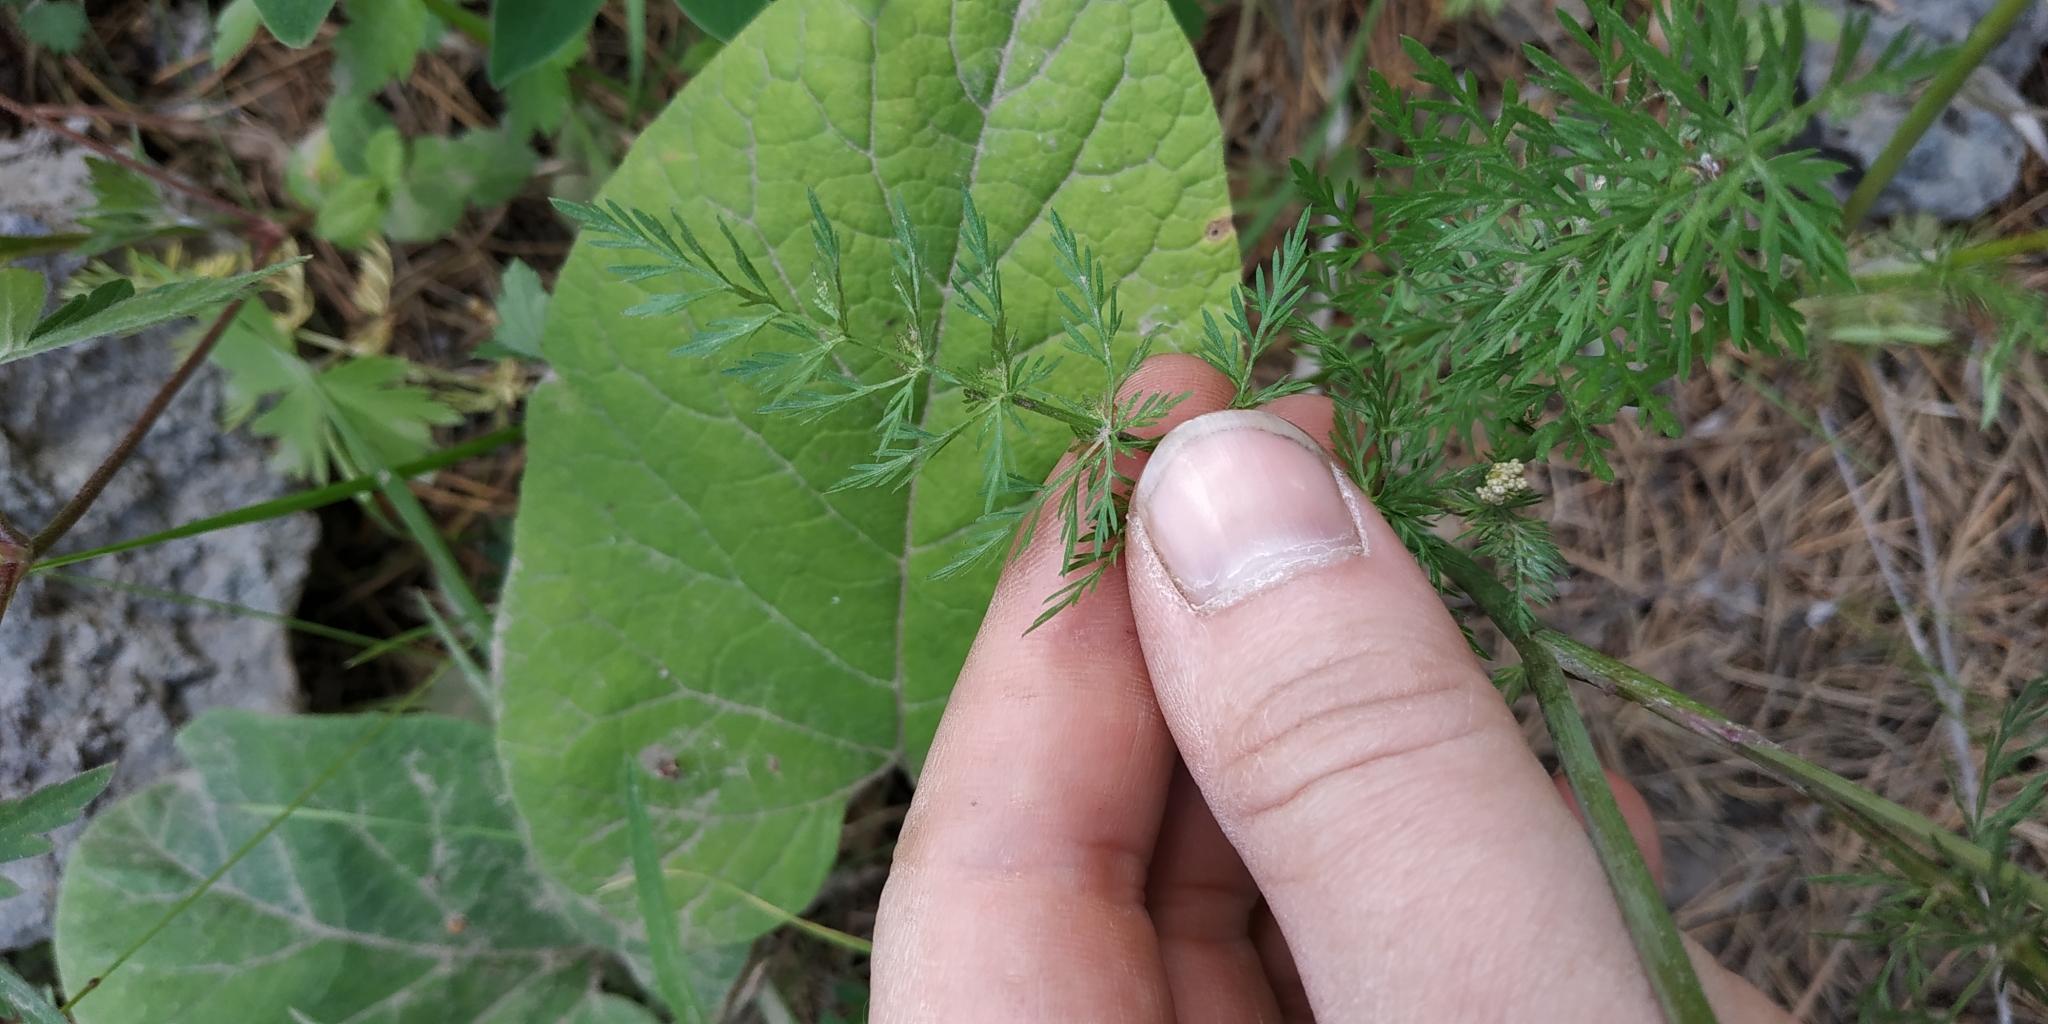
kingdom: Plantae
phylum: Tracheophyta
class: Magnoliopsida
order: Apiales
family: Apiaceae
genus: Carum
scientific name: Carum carvi
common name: Caraway
